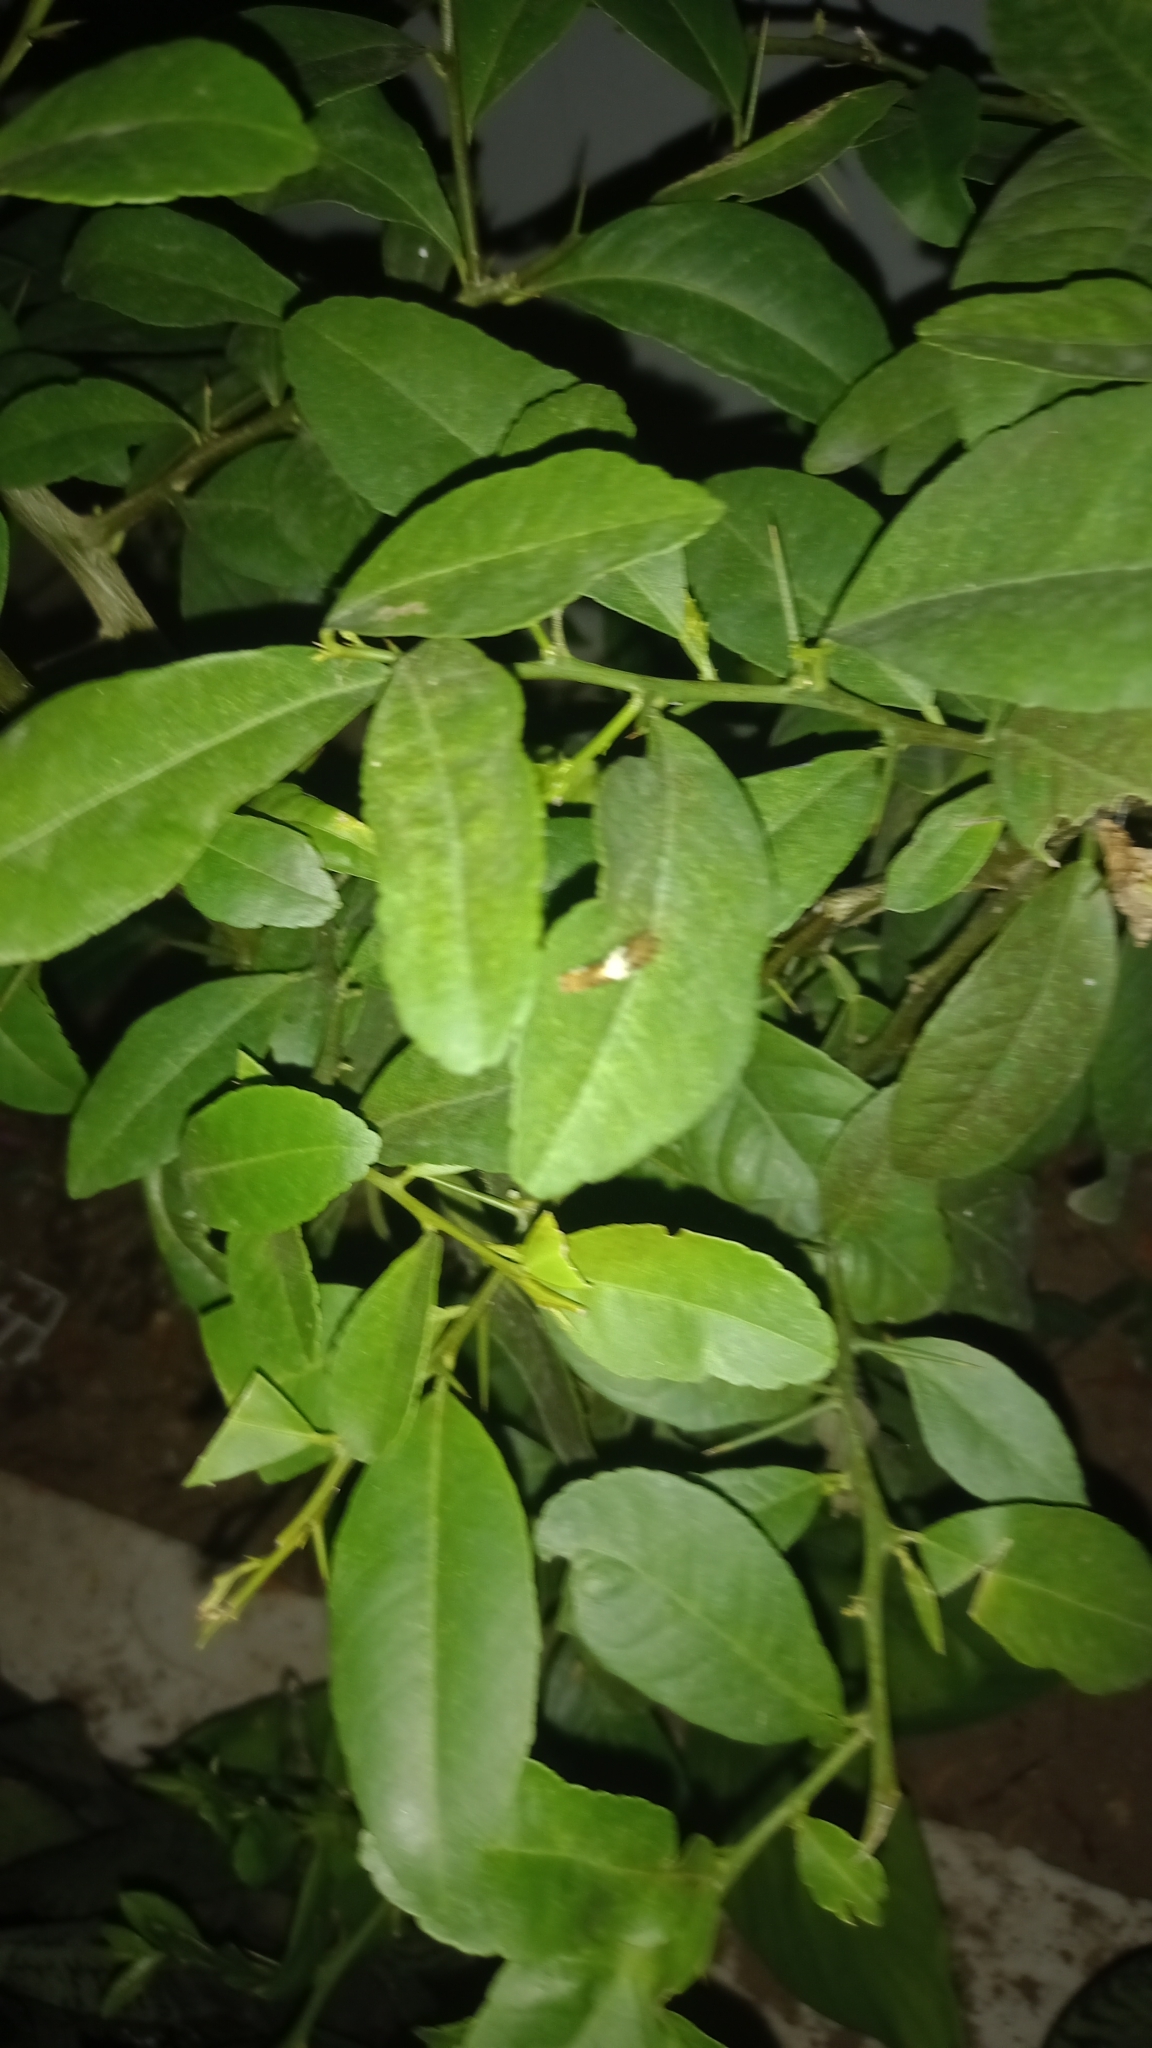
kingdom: Animalia
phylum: Arthropoda
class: Insecta
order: Lepidoptera
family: Papilionidae
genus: Papilio
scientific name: Papilio
